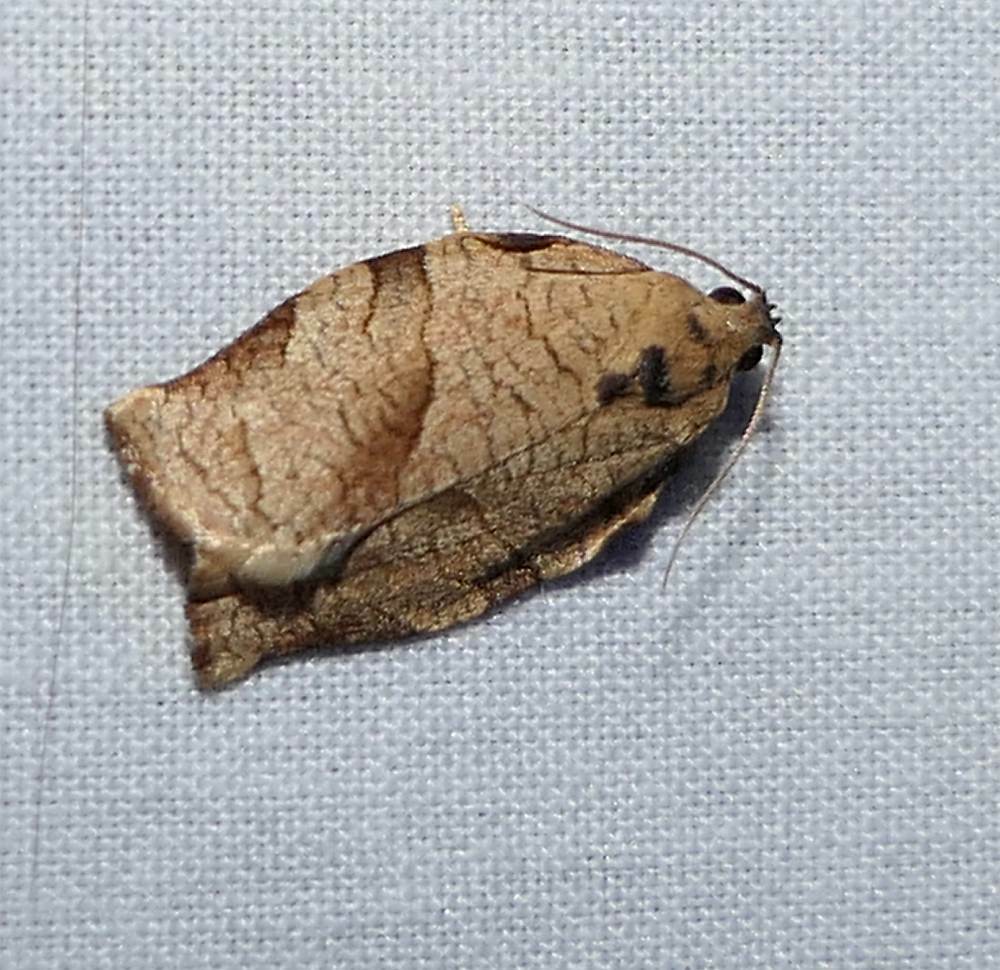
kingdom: Animalia
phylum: Arthropoda
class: Insecta
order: Lepidoptera
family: Tortricidae
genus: Choristoneura
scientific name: Choristoneura rosaceana
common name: Oblique-banded leafroller moth
